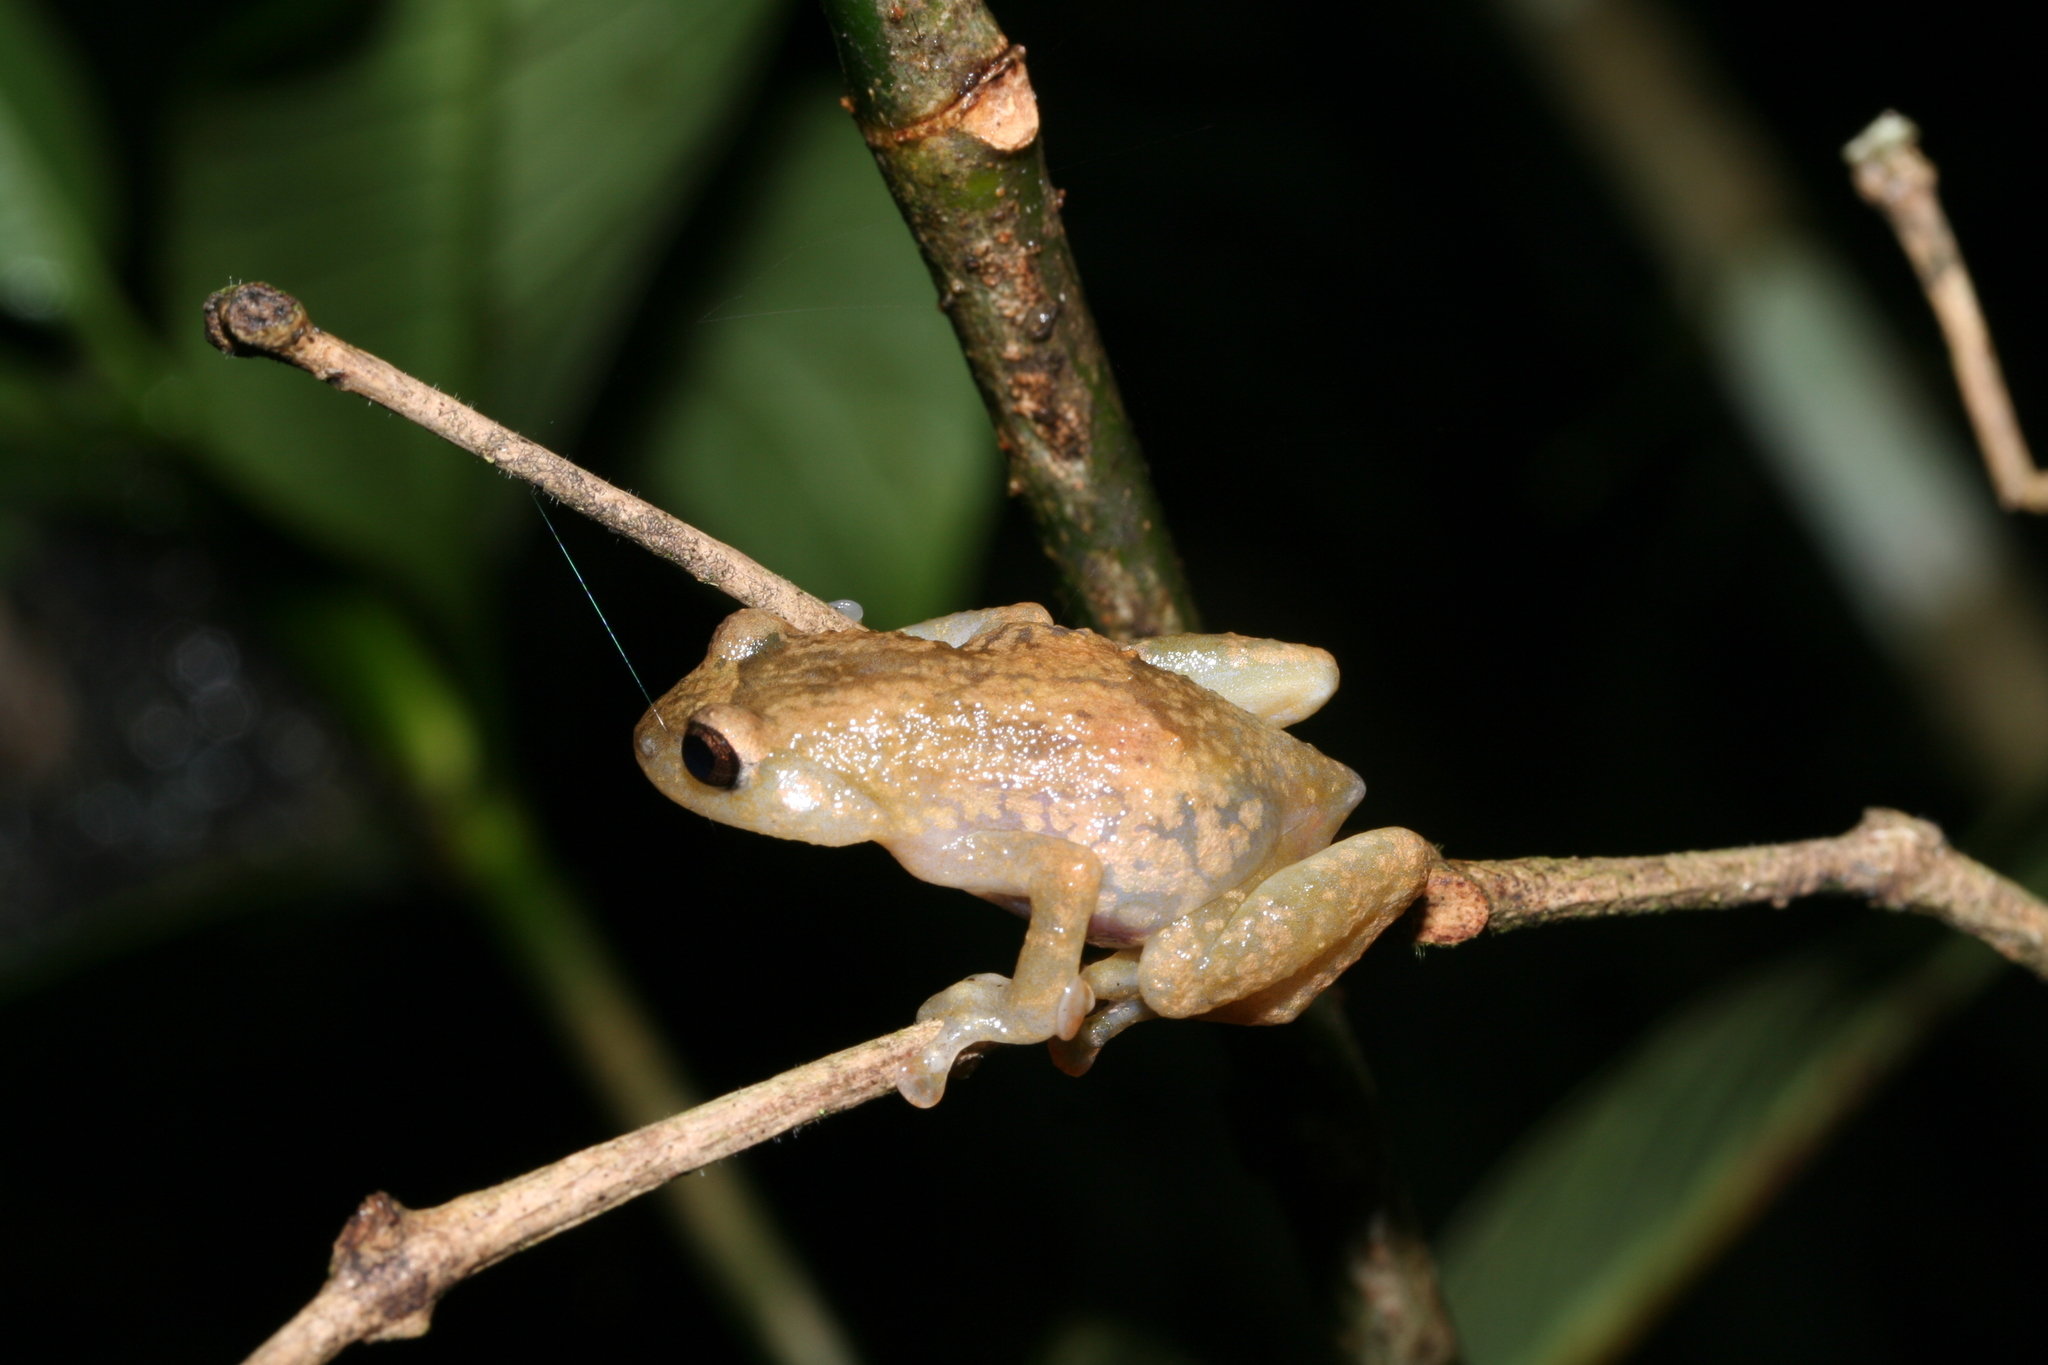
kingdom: Animalia
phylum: Chordata
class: Amphibia
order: Anura
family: Microhylidae
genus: Anodonthyla
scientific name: Anodonthyla boulengerii
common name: Boulenger's climbing frog
